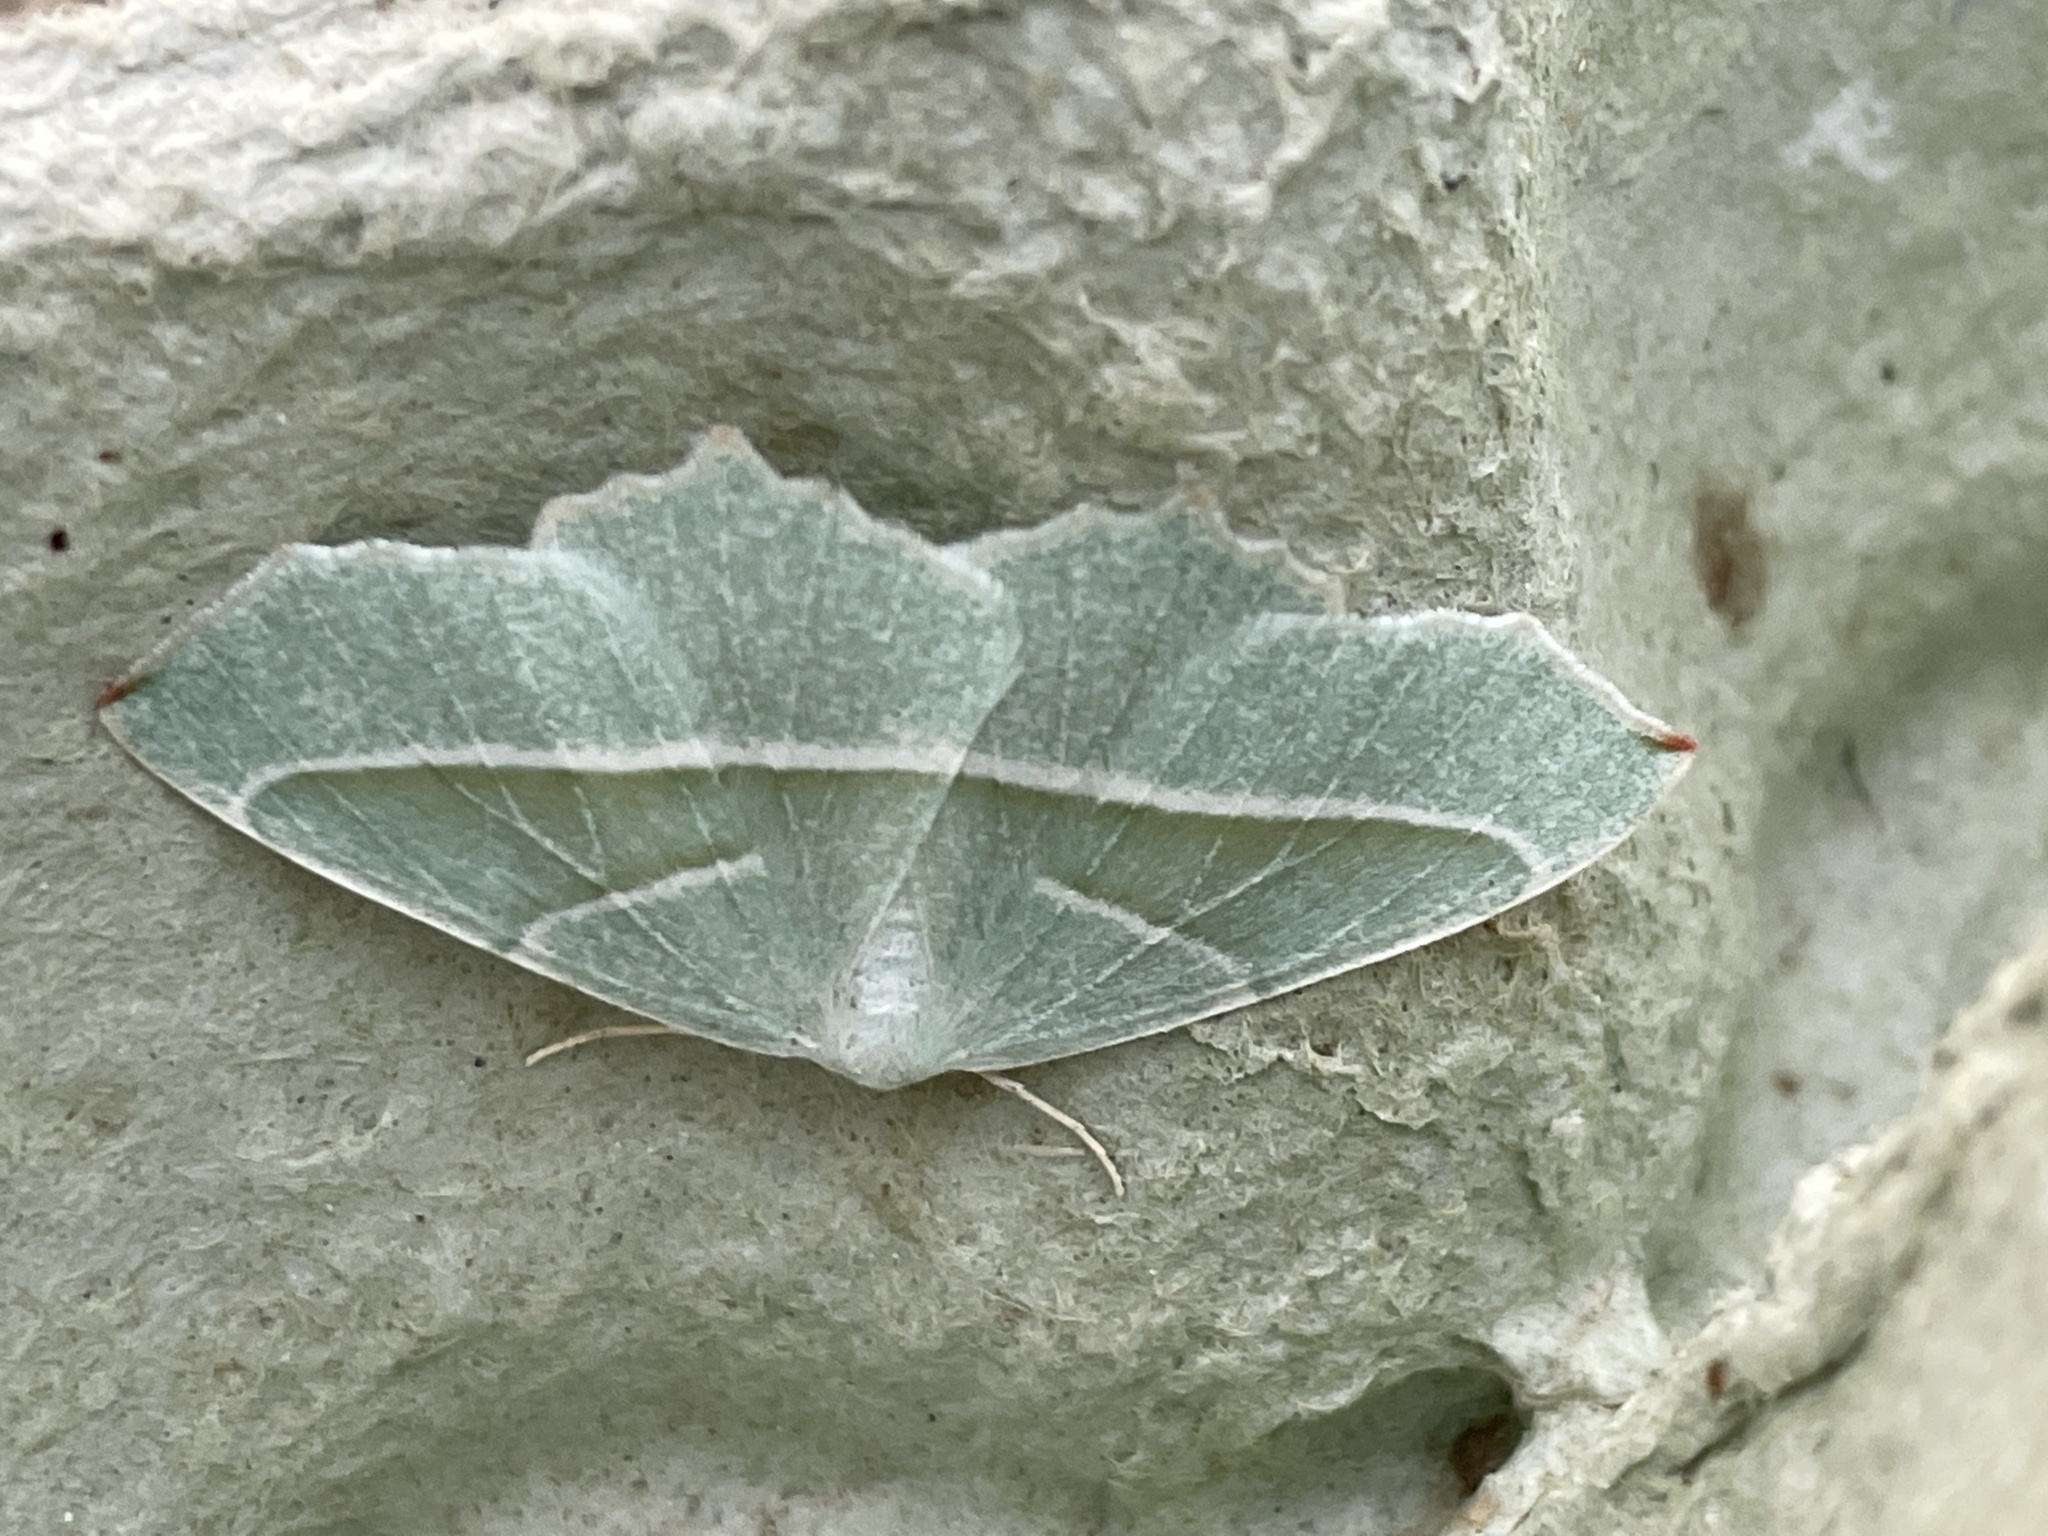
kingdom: Animalia
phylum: Arthropoda
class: Insecta
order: Lepidoptera
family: Geometridae
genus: Campaea
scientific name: Campaea margaritaria
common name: Light emerald
